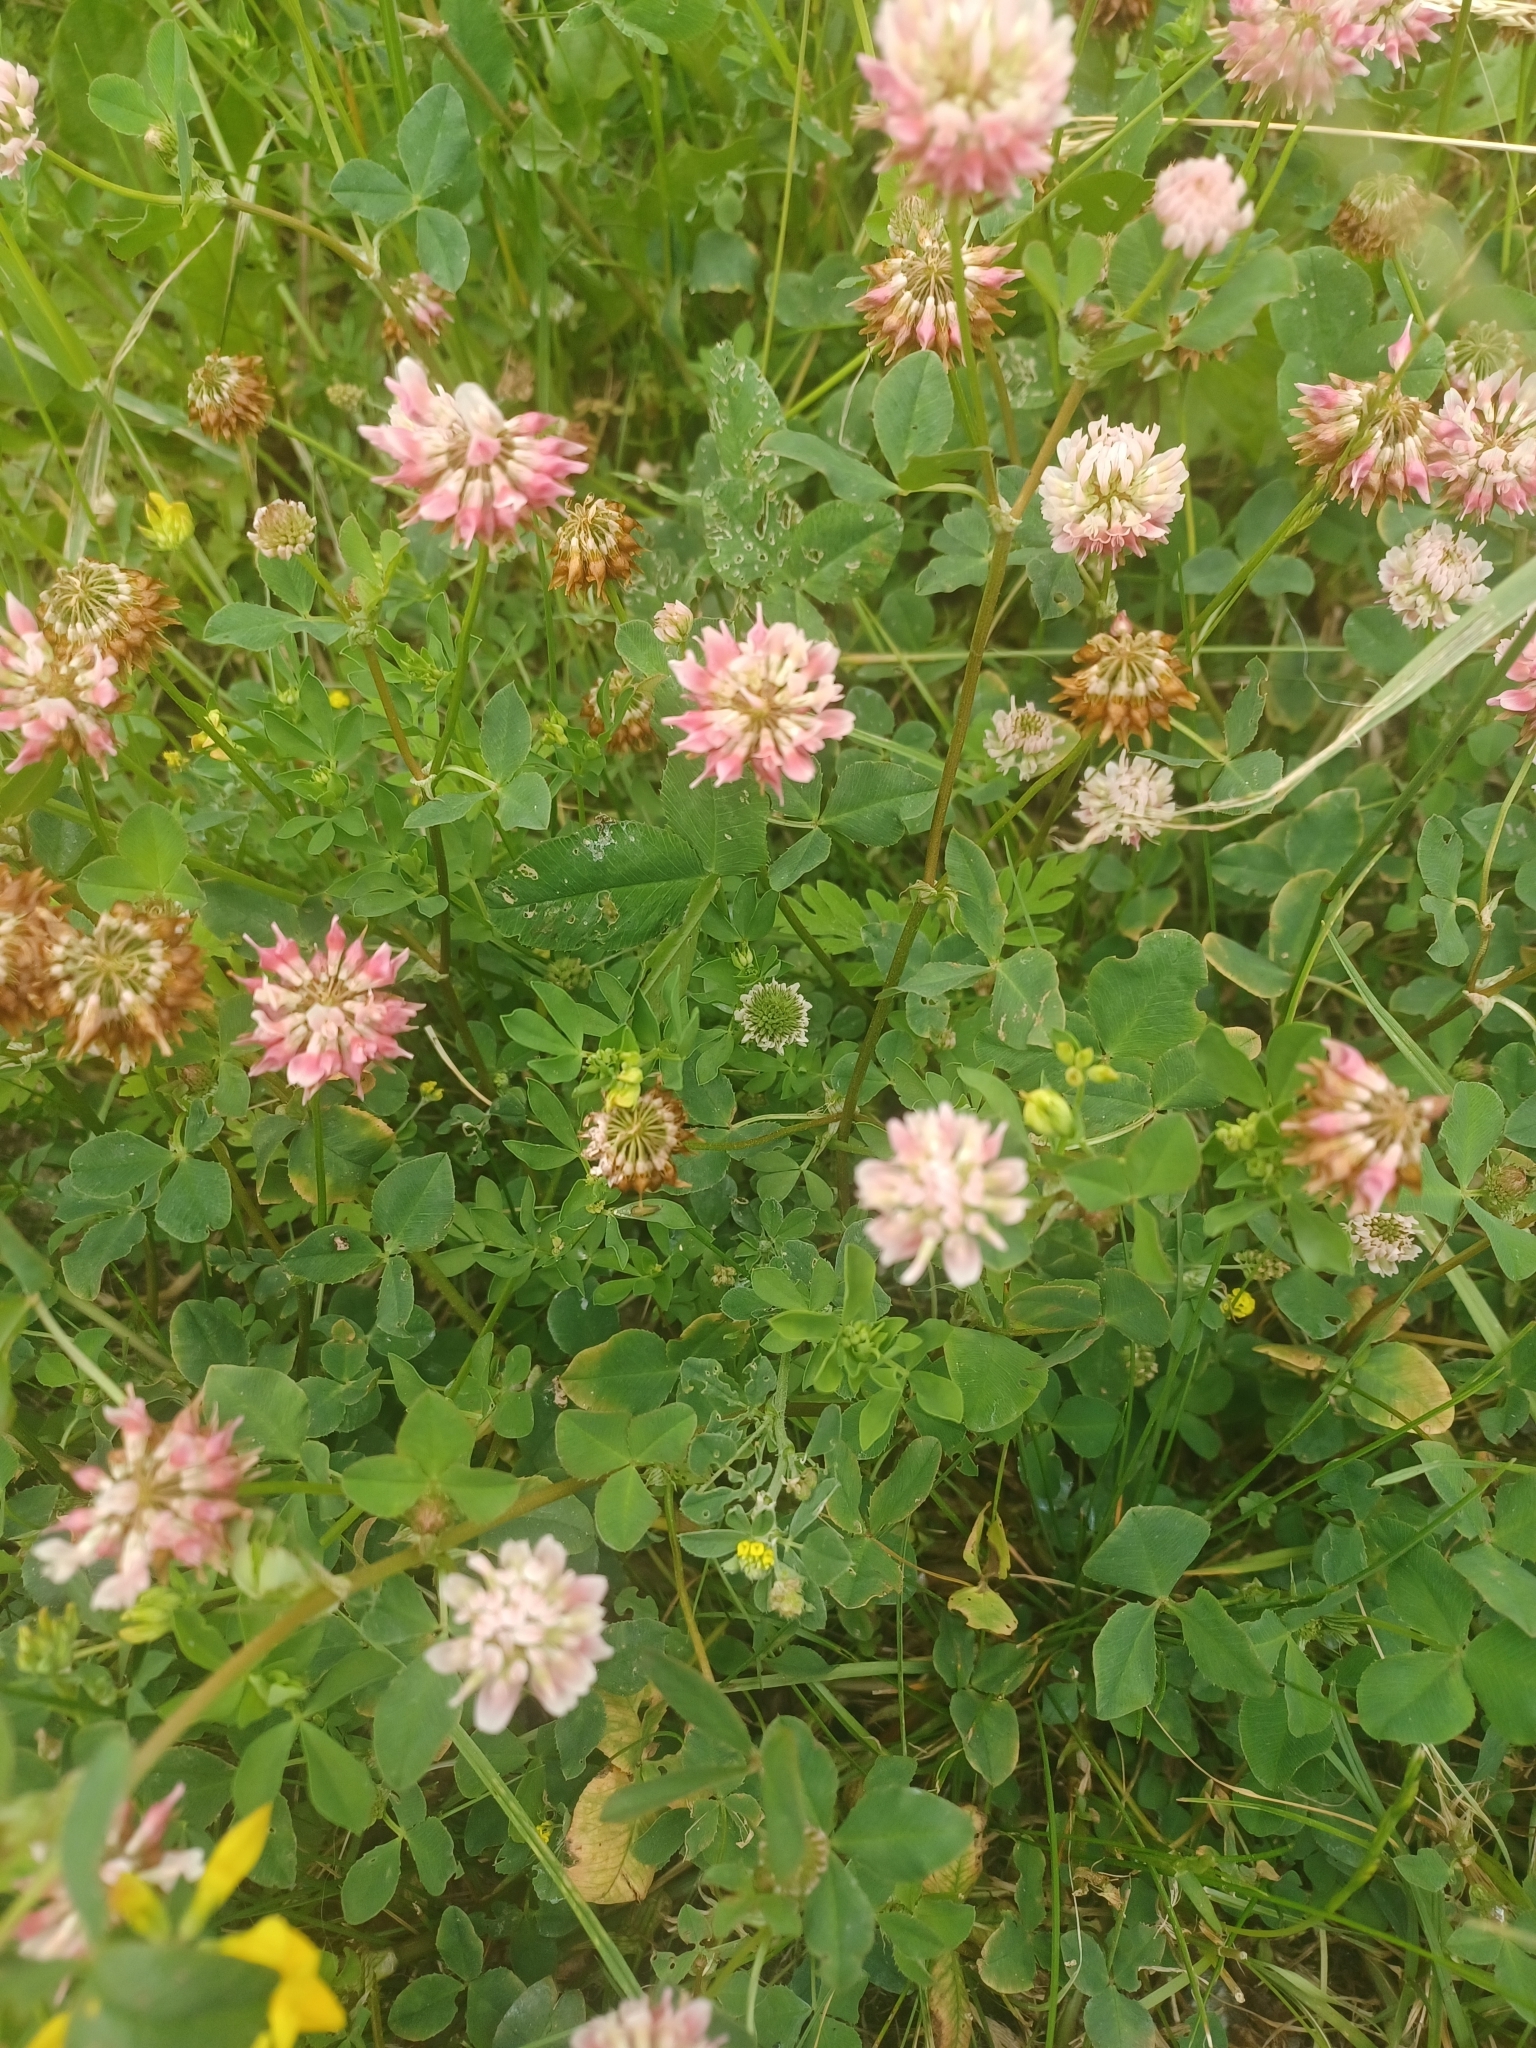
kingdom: Plantae
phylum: Tracheophyta
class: Magnoliopsida
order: Fabales
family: Fabaceae
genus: Trifolium
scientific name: Trifolium hybridum
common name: Alsike clover
